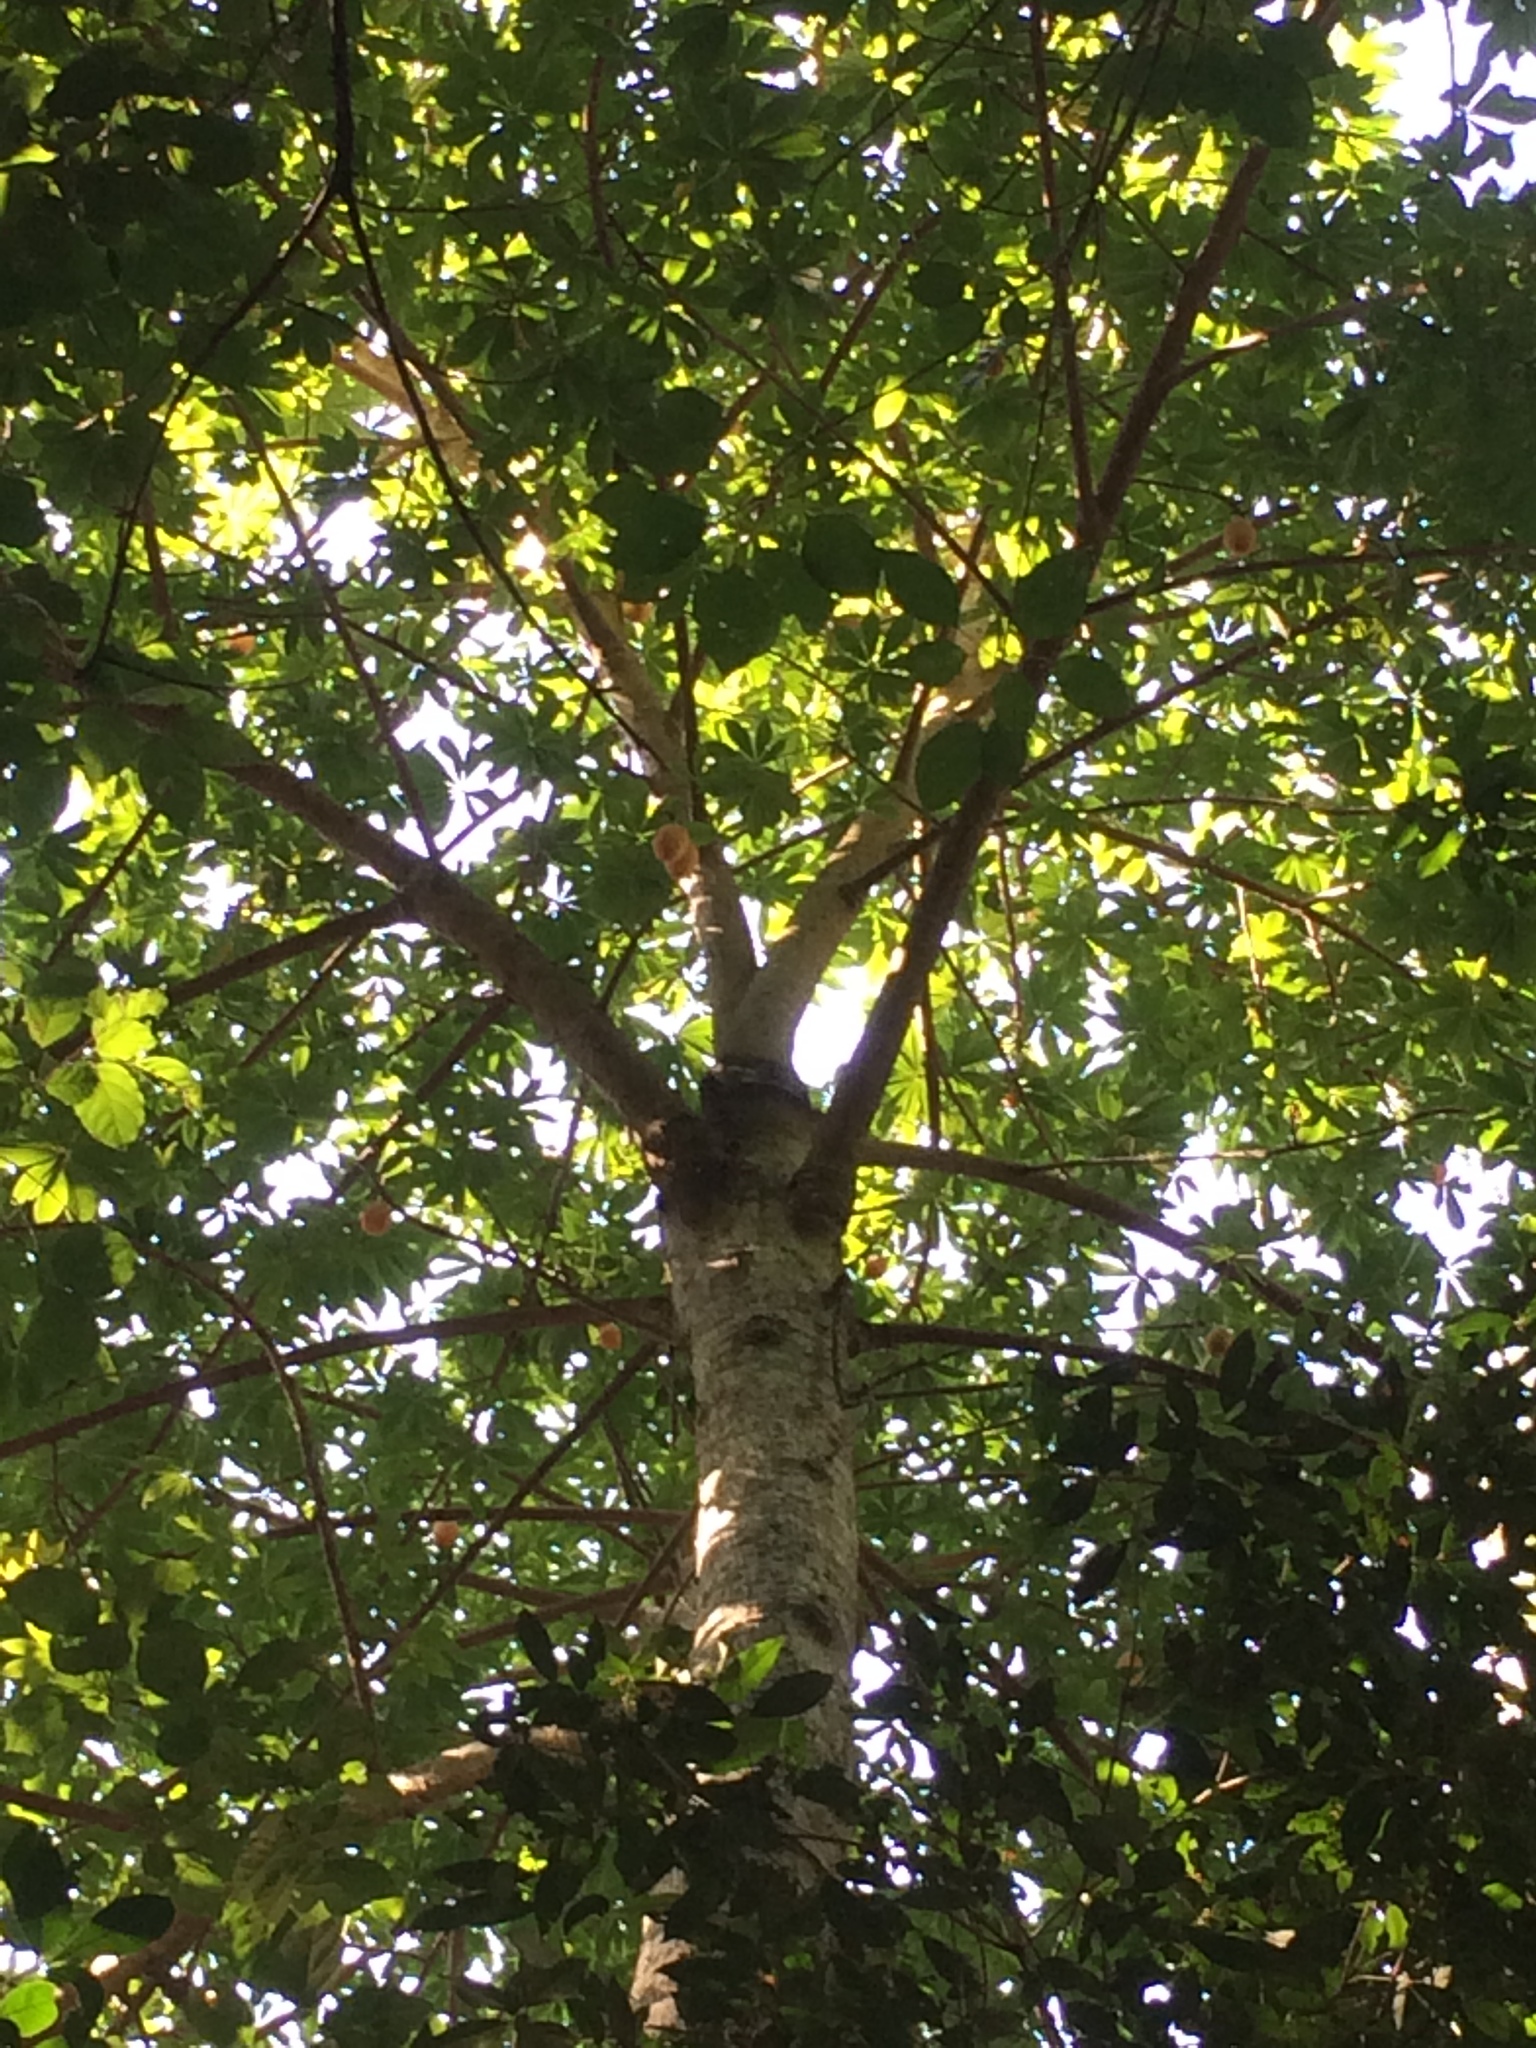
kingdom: Plantae
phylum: Tracheophyta
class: Magnoliopsida
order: Brassicales
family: Caricaceae
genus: Jacaratia
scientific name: Jacaratia spinosa
